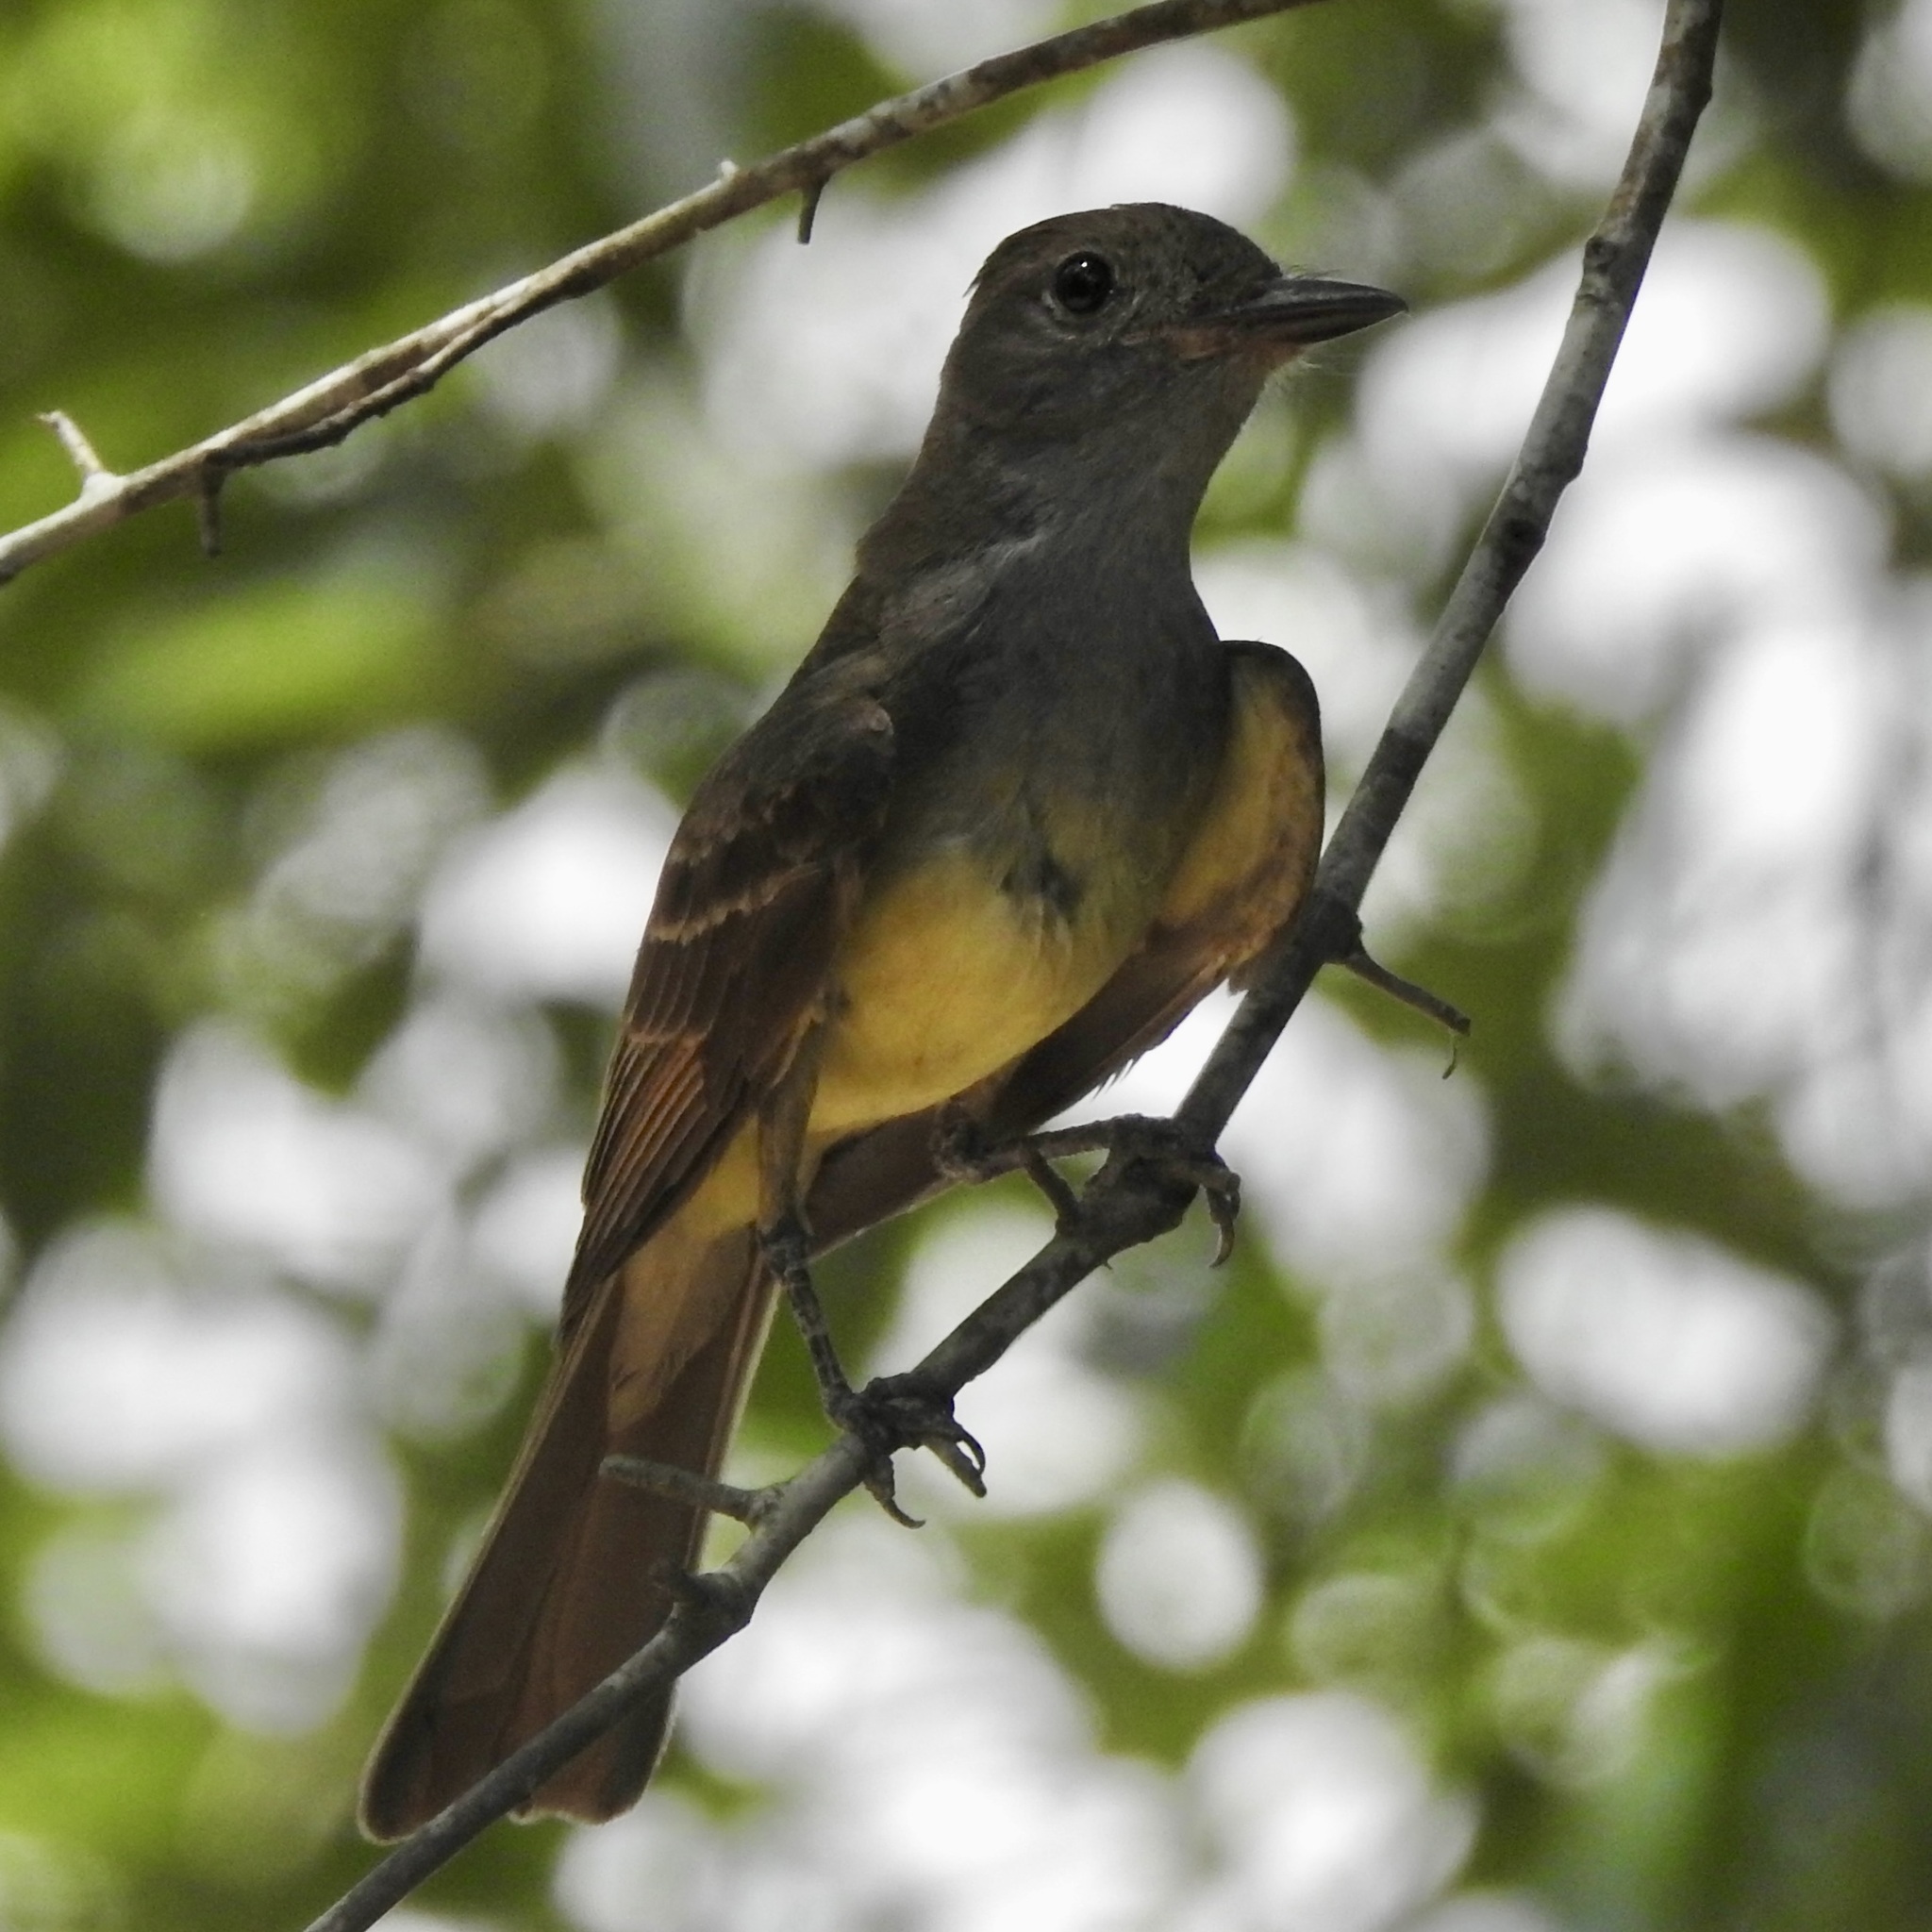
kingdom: Animalia
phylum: Chordata
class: Aves
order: Passeriformes
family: Tyrannidae
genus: Myiarchus
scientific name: Myiarchus crinitus
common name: Great crested flycatcher
